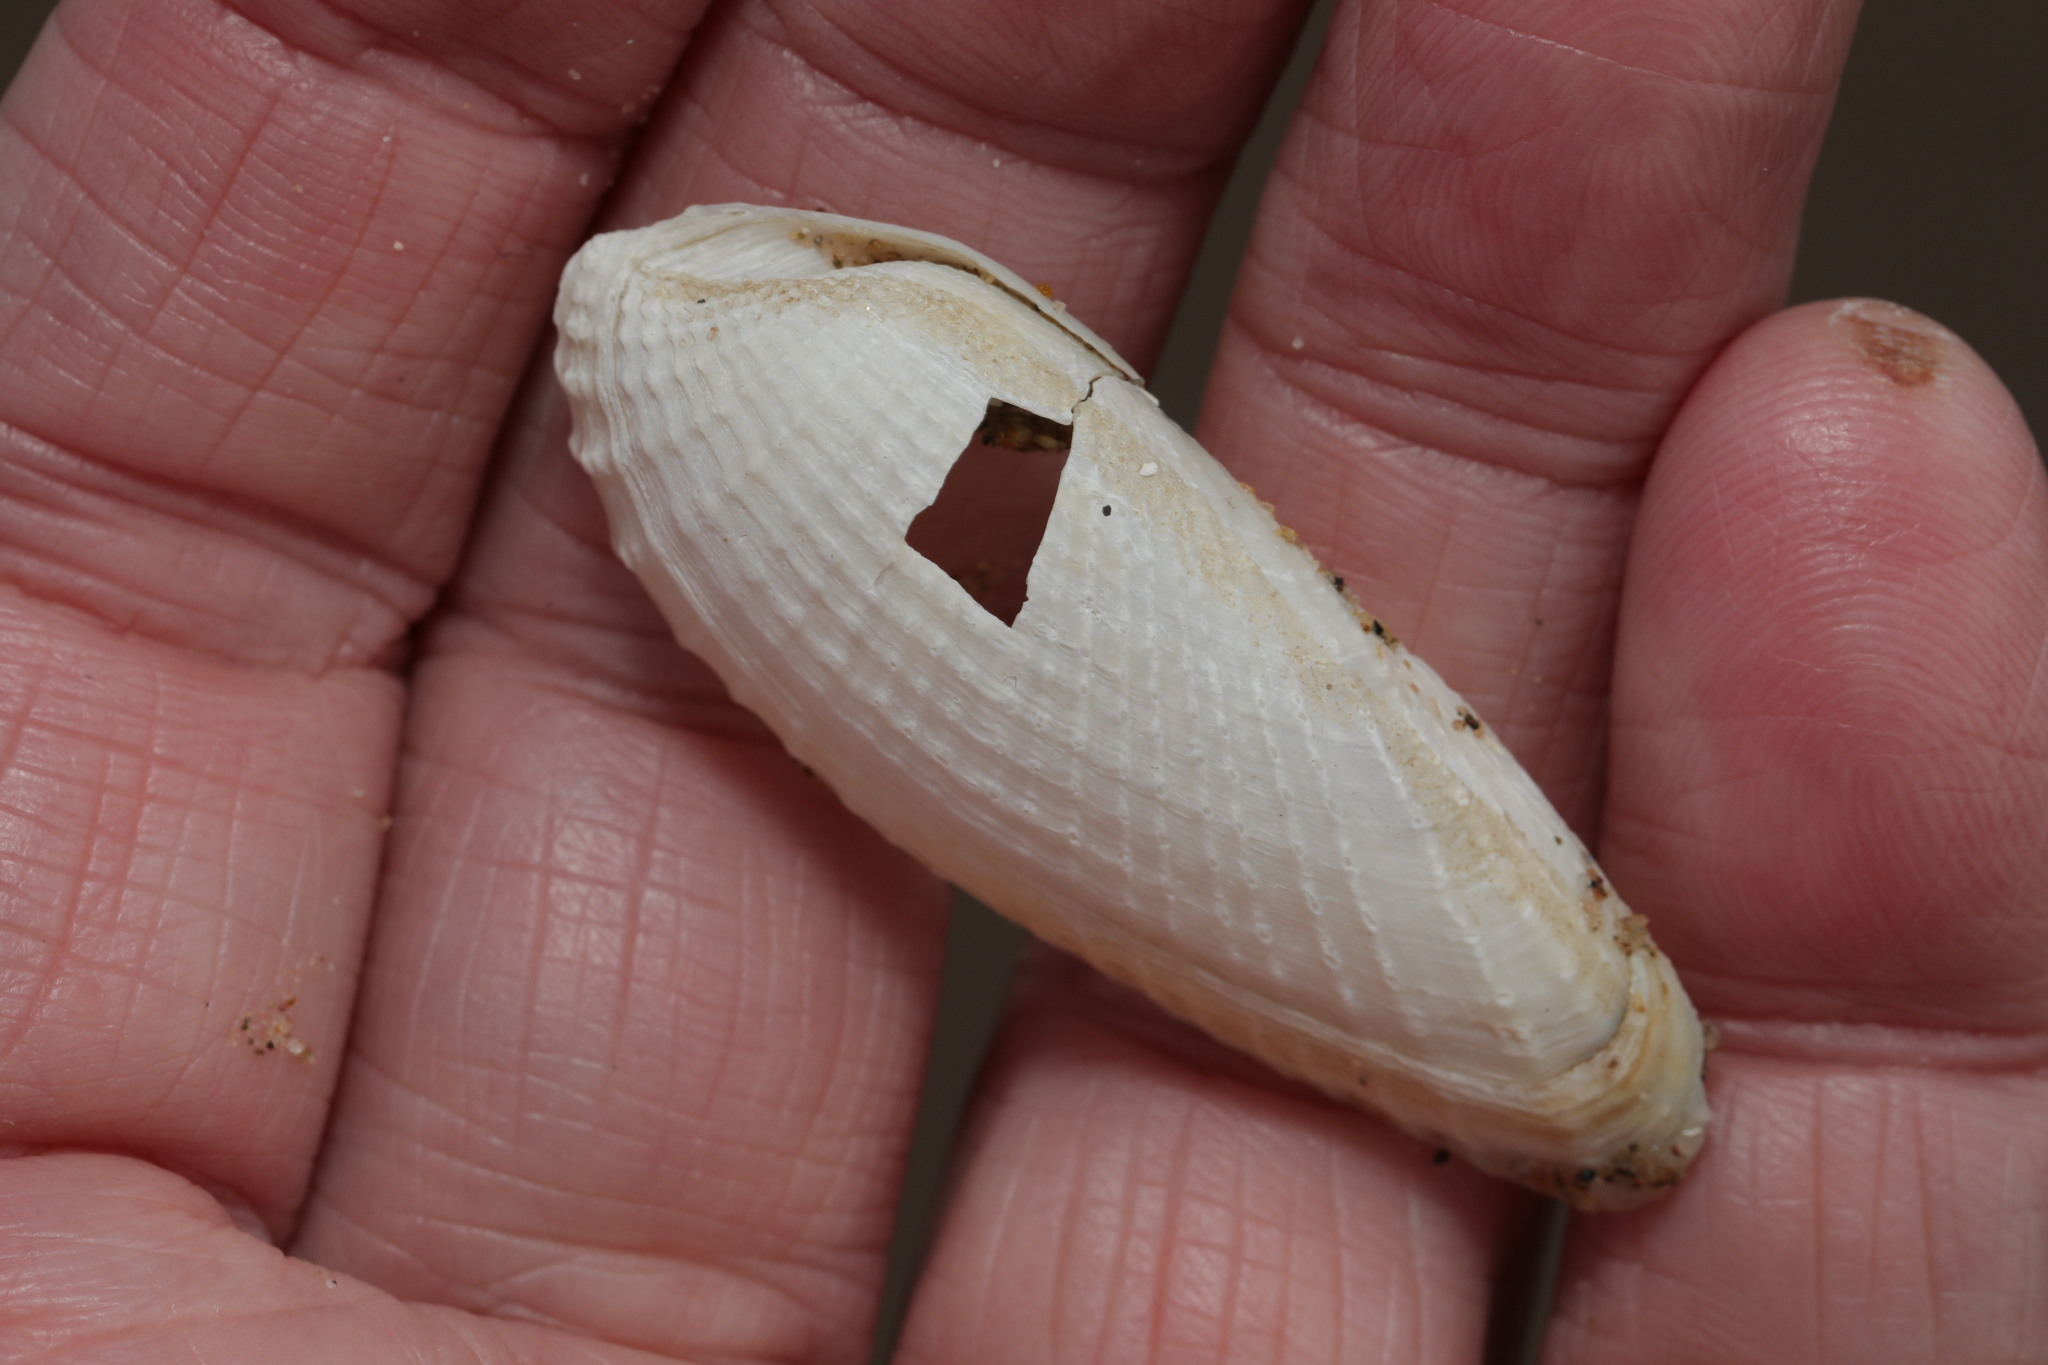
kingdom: Animalia
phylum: Mollusca
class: Bivalvia
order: Myida
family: Pholadidae
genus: Barnea
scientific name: Barnea candida
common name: White piddock
